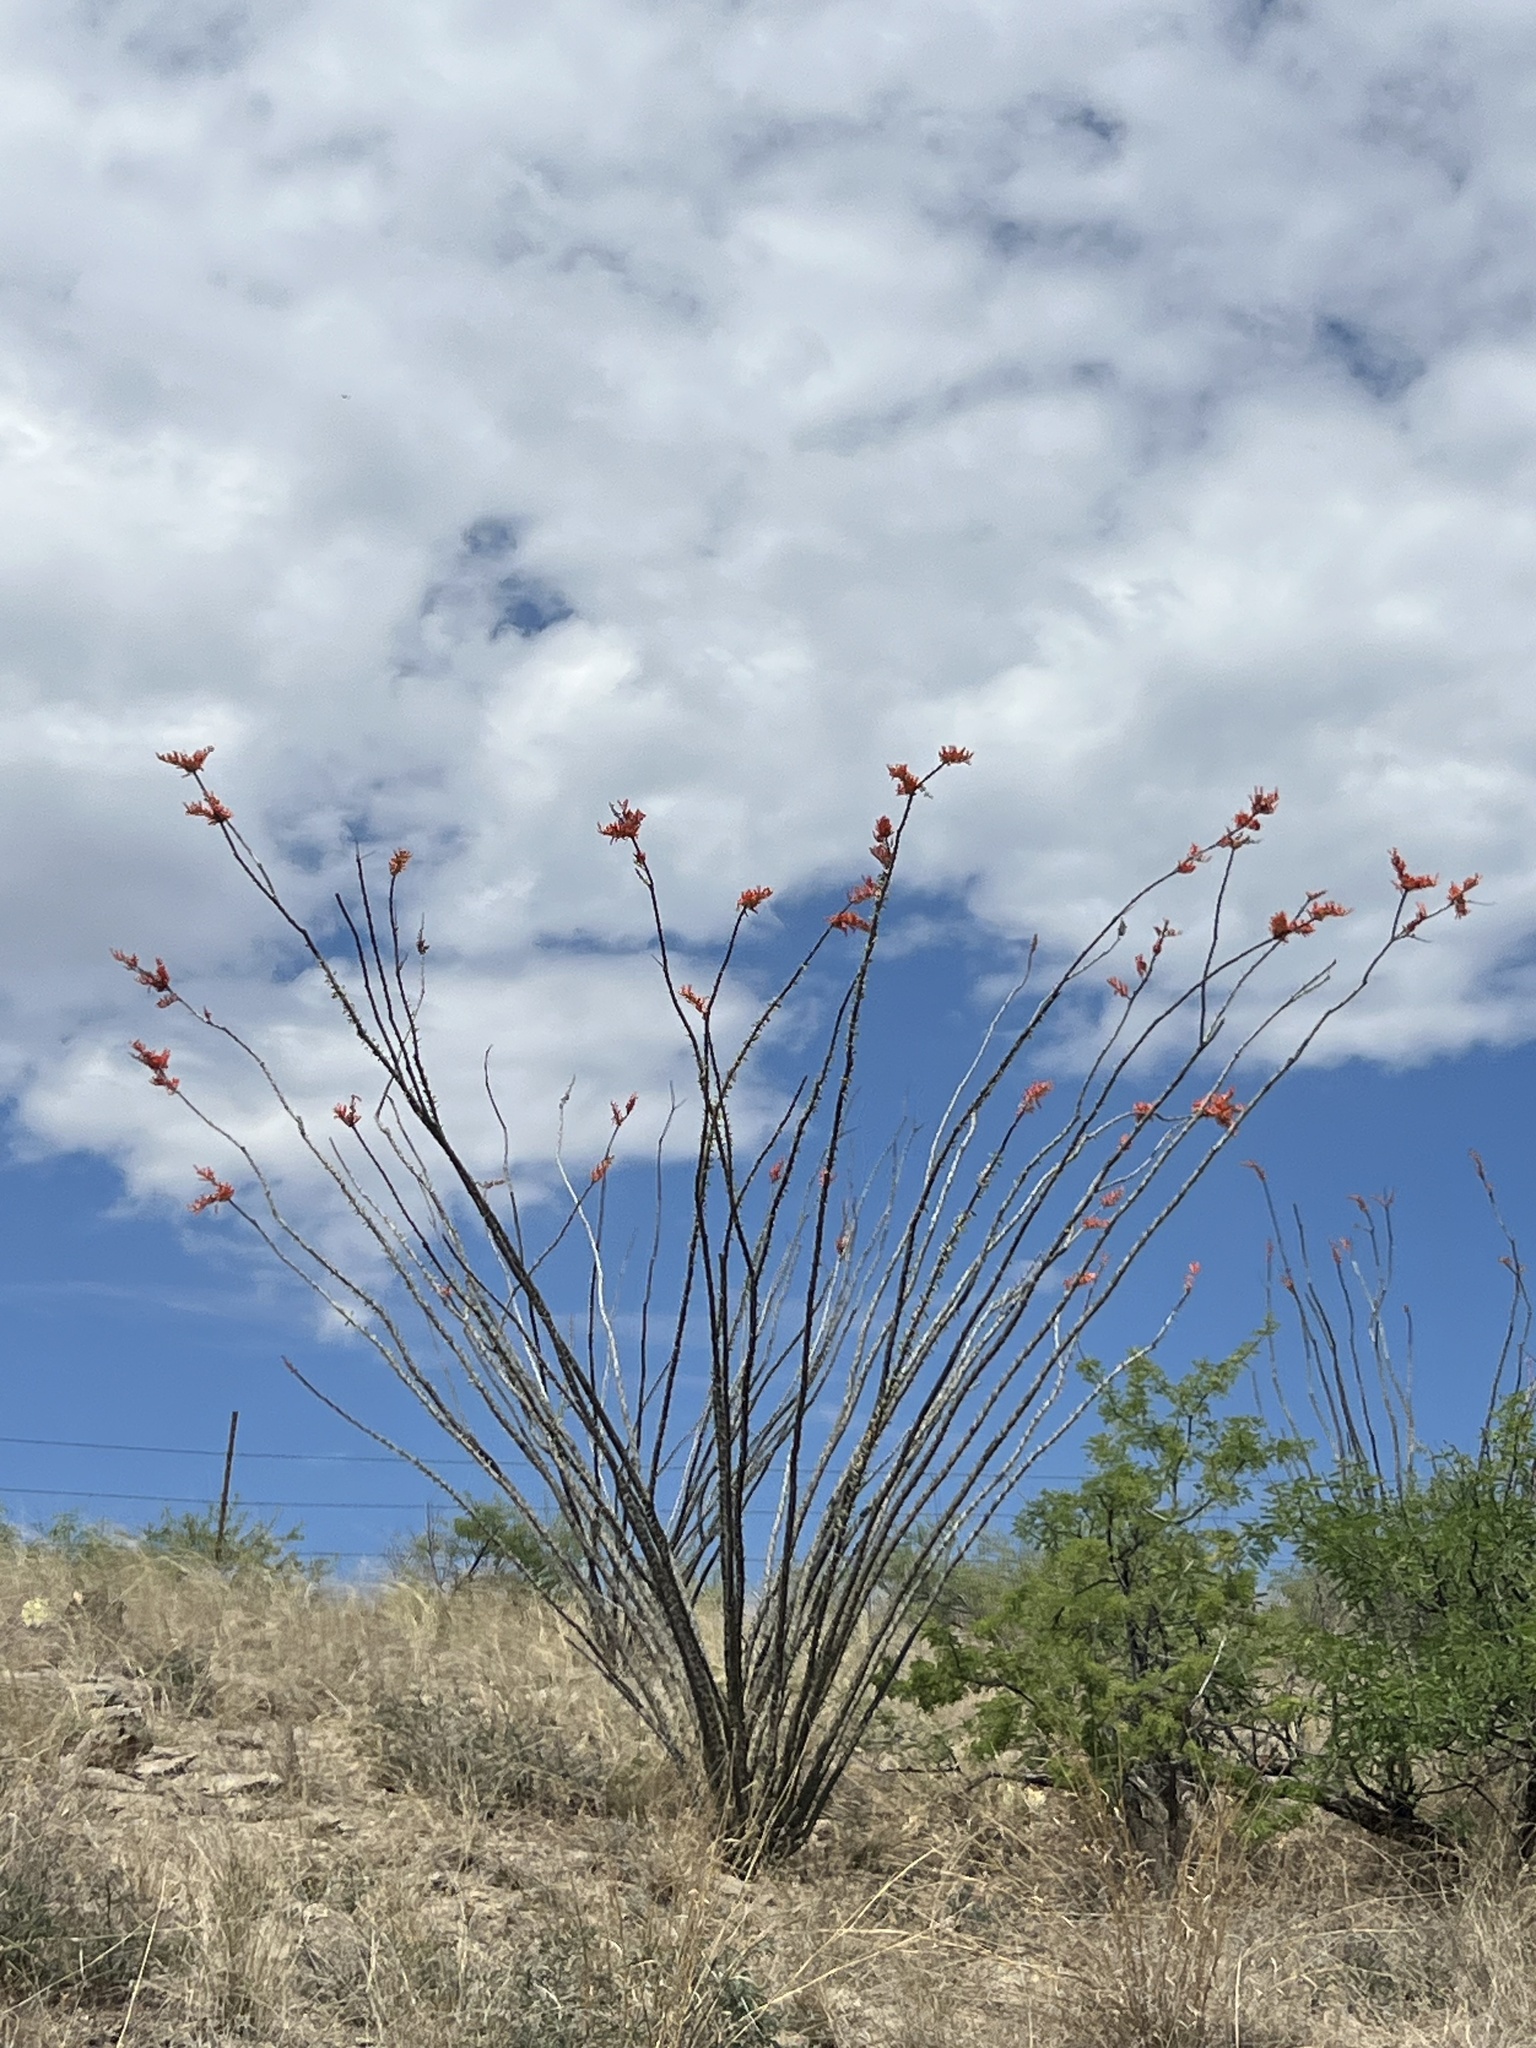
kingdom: Plantae
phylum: Tracheophyta
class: Magnoliopsida
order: Ericales
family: Fouquieriaceae
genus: Fouquieria
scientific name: Fouquieria splendens
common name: Vine-cactus
